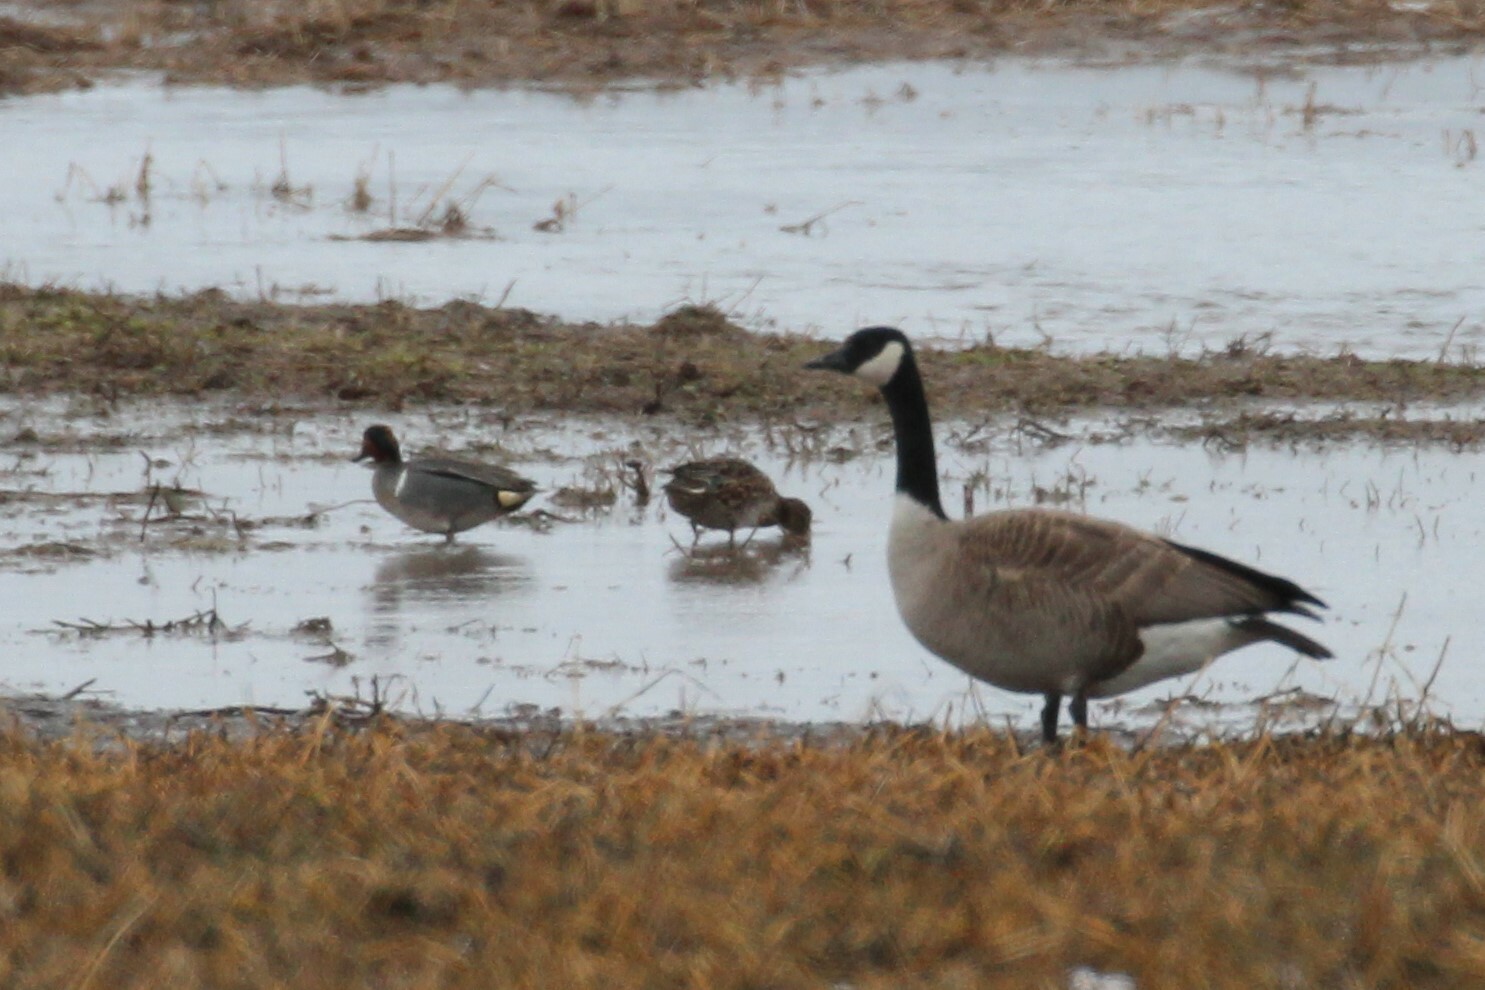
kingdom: Animalia
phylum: Chordata
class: Aves
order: Anseriformes
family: Anatidae
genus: Anas
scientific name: Anas crecca
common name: Eurasian teal
